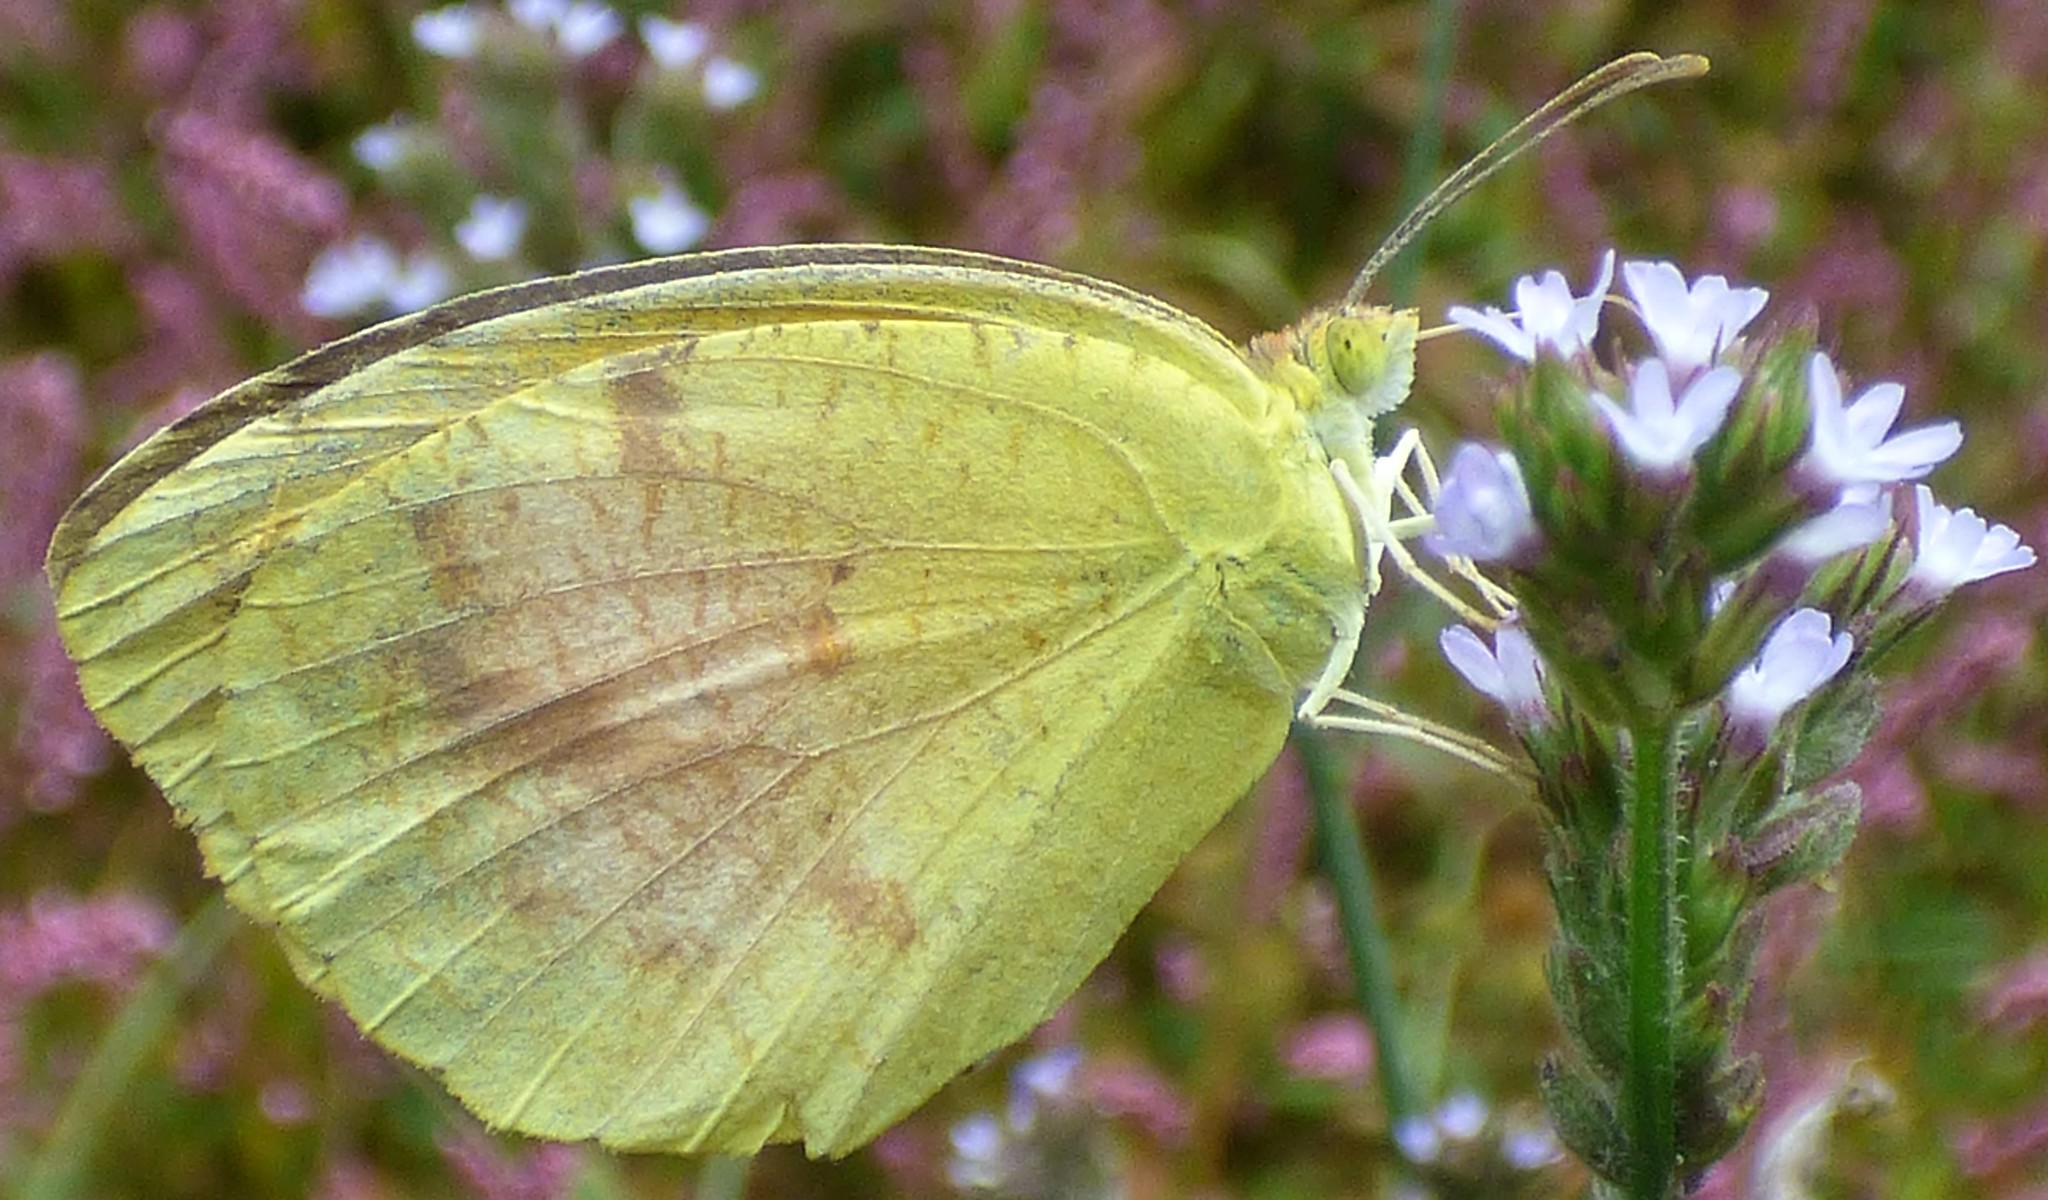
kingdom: Animalia
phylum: Arthropoda
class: Insecta
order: Lepidoptera
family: Pieridae
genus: Abaeis
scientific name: Abaeis nicippe
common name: Sleepy orange
